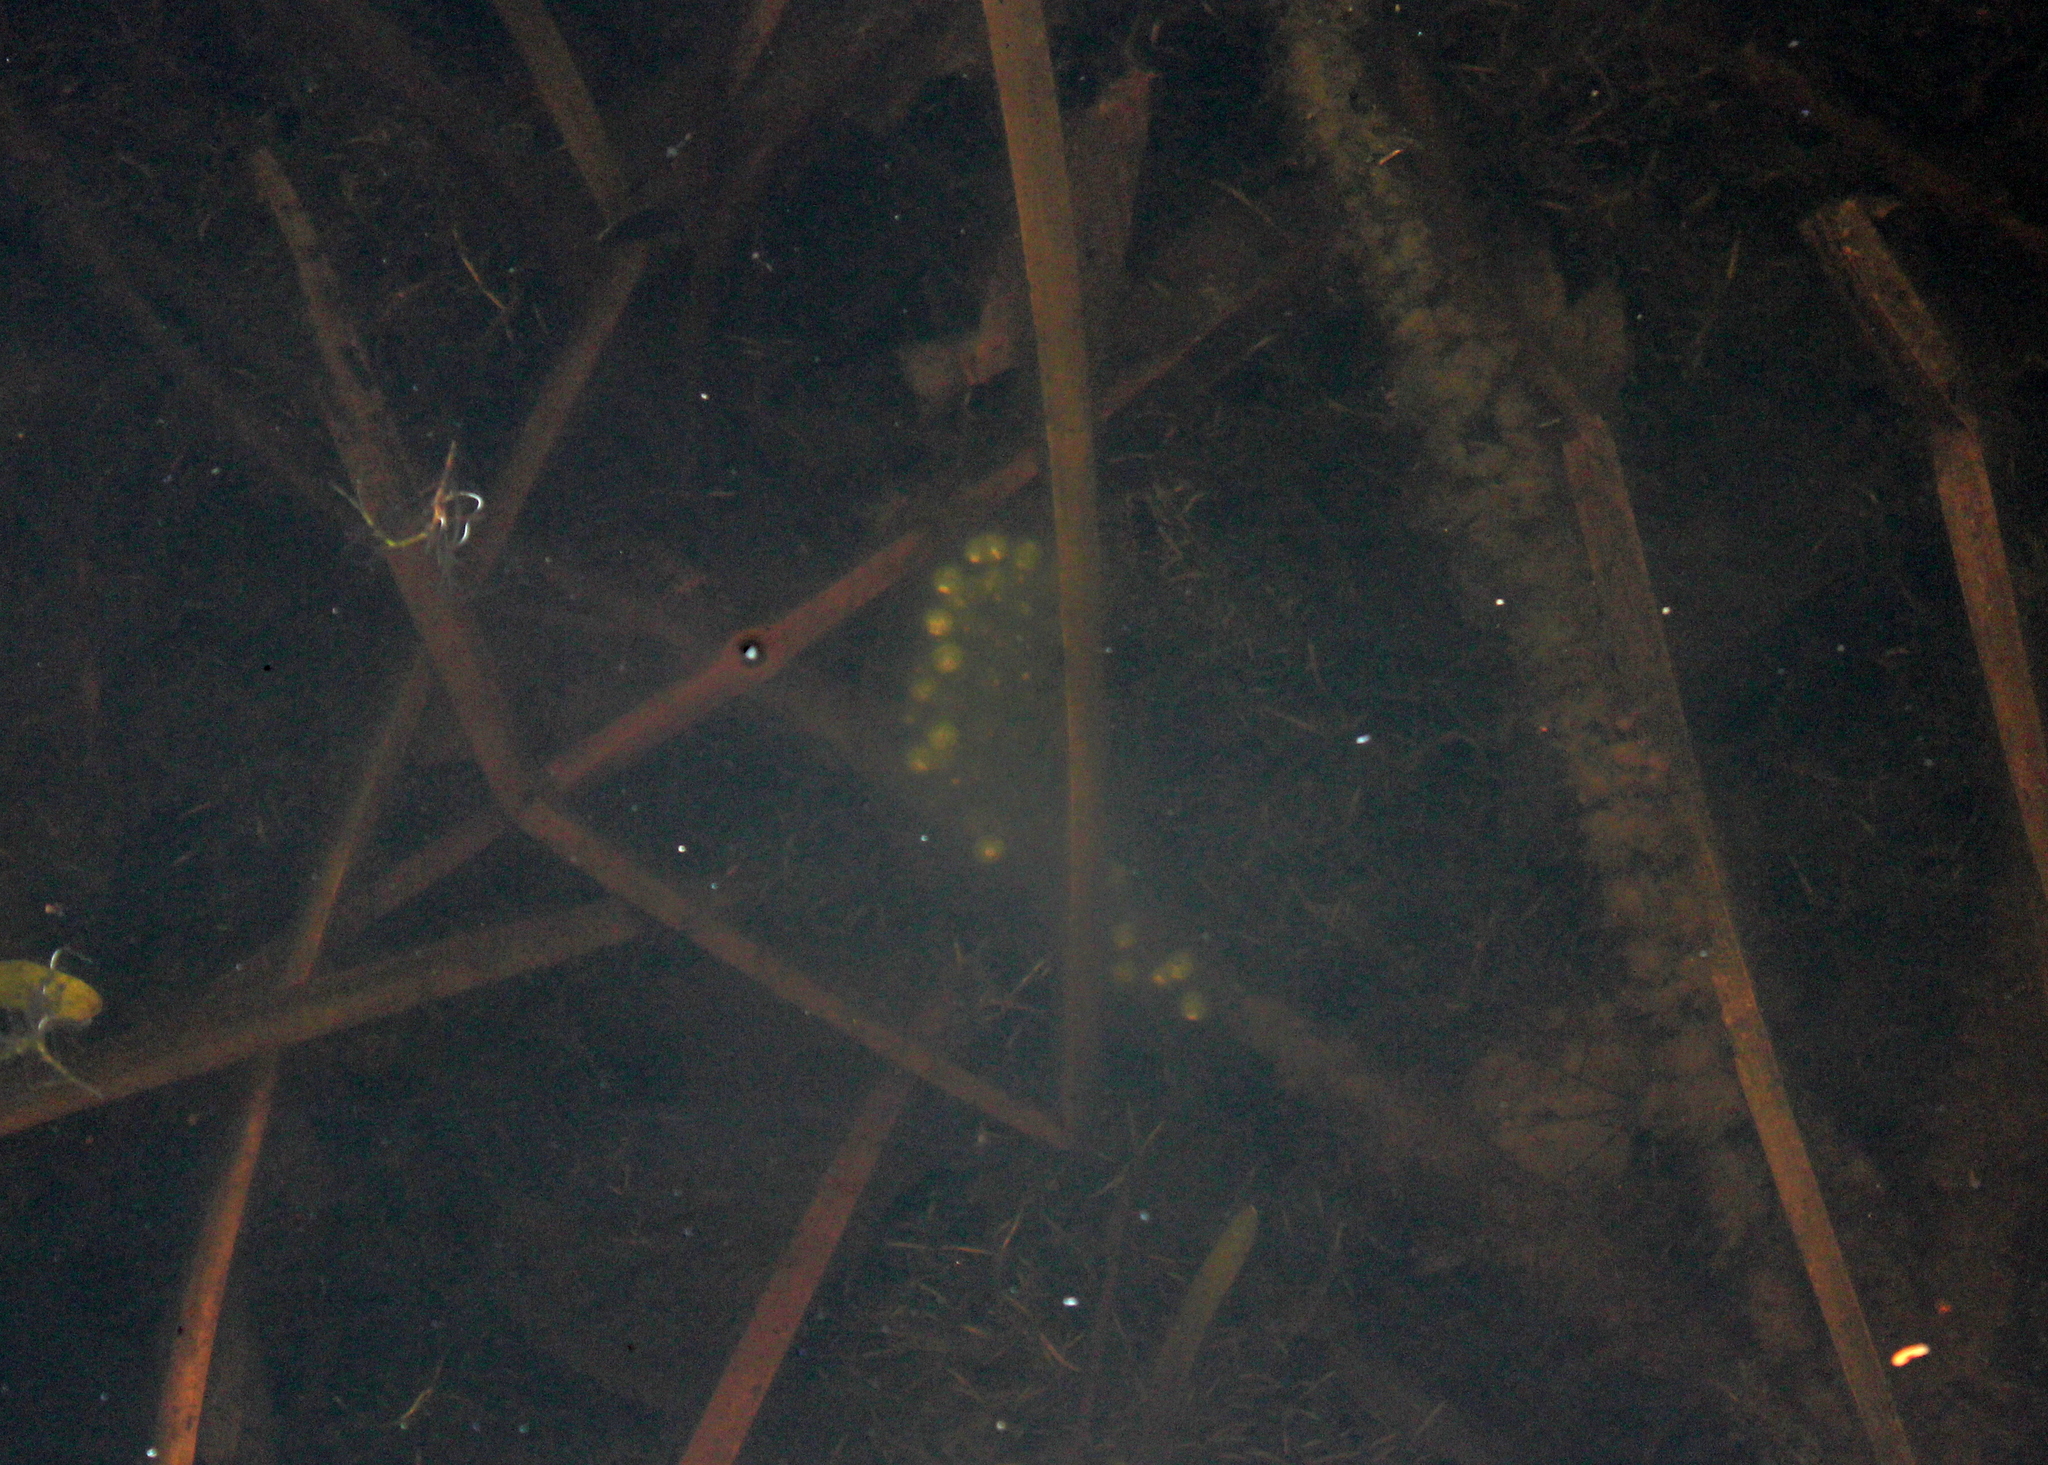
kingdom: Animalia
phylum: Chordata
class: Amphibia
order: Caudata
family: Ambystomatidae
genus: Ambystoma
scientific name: Ambystoma maculatum
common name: Spotted salamander
